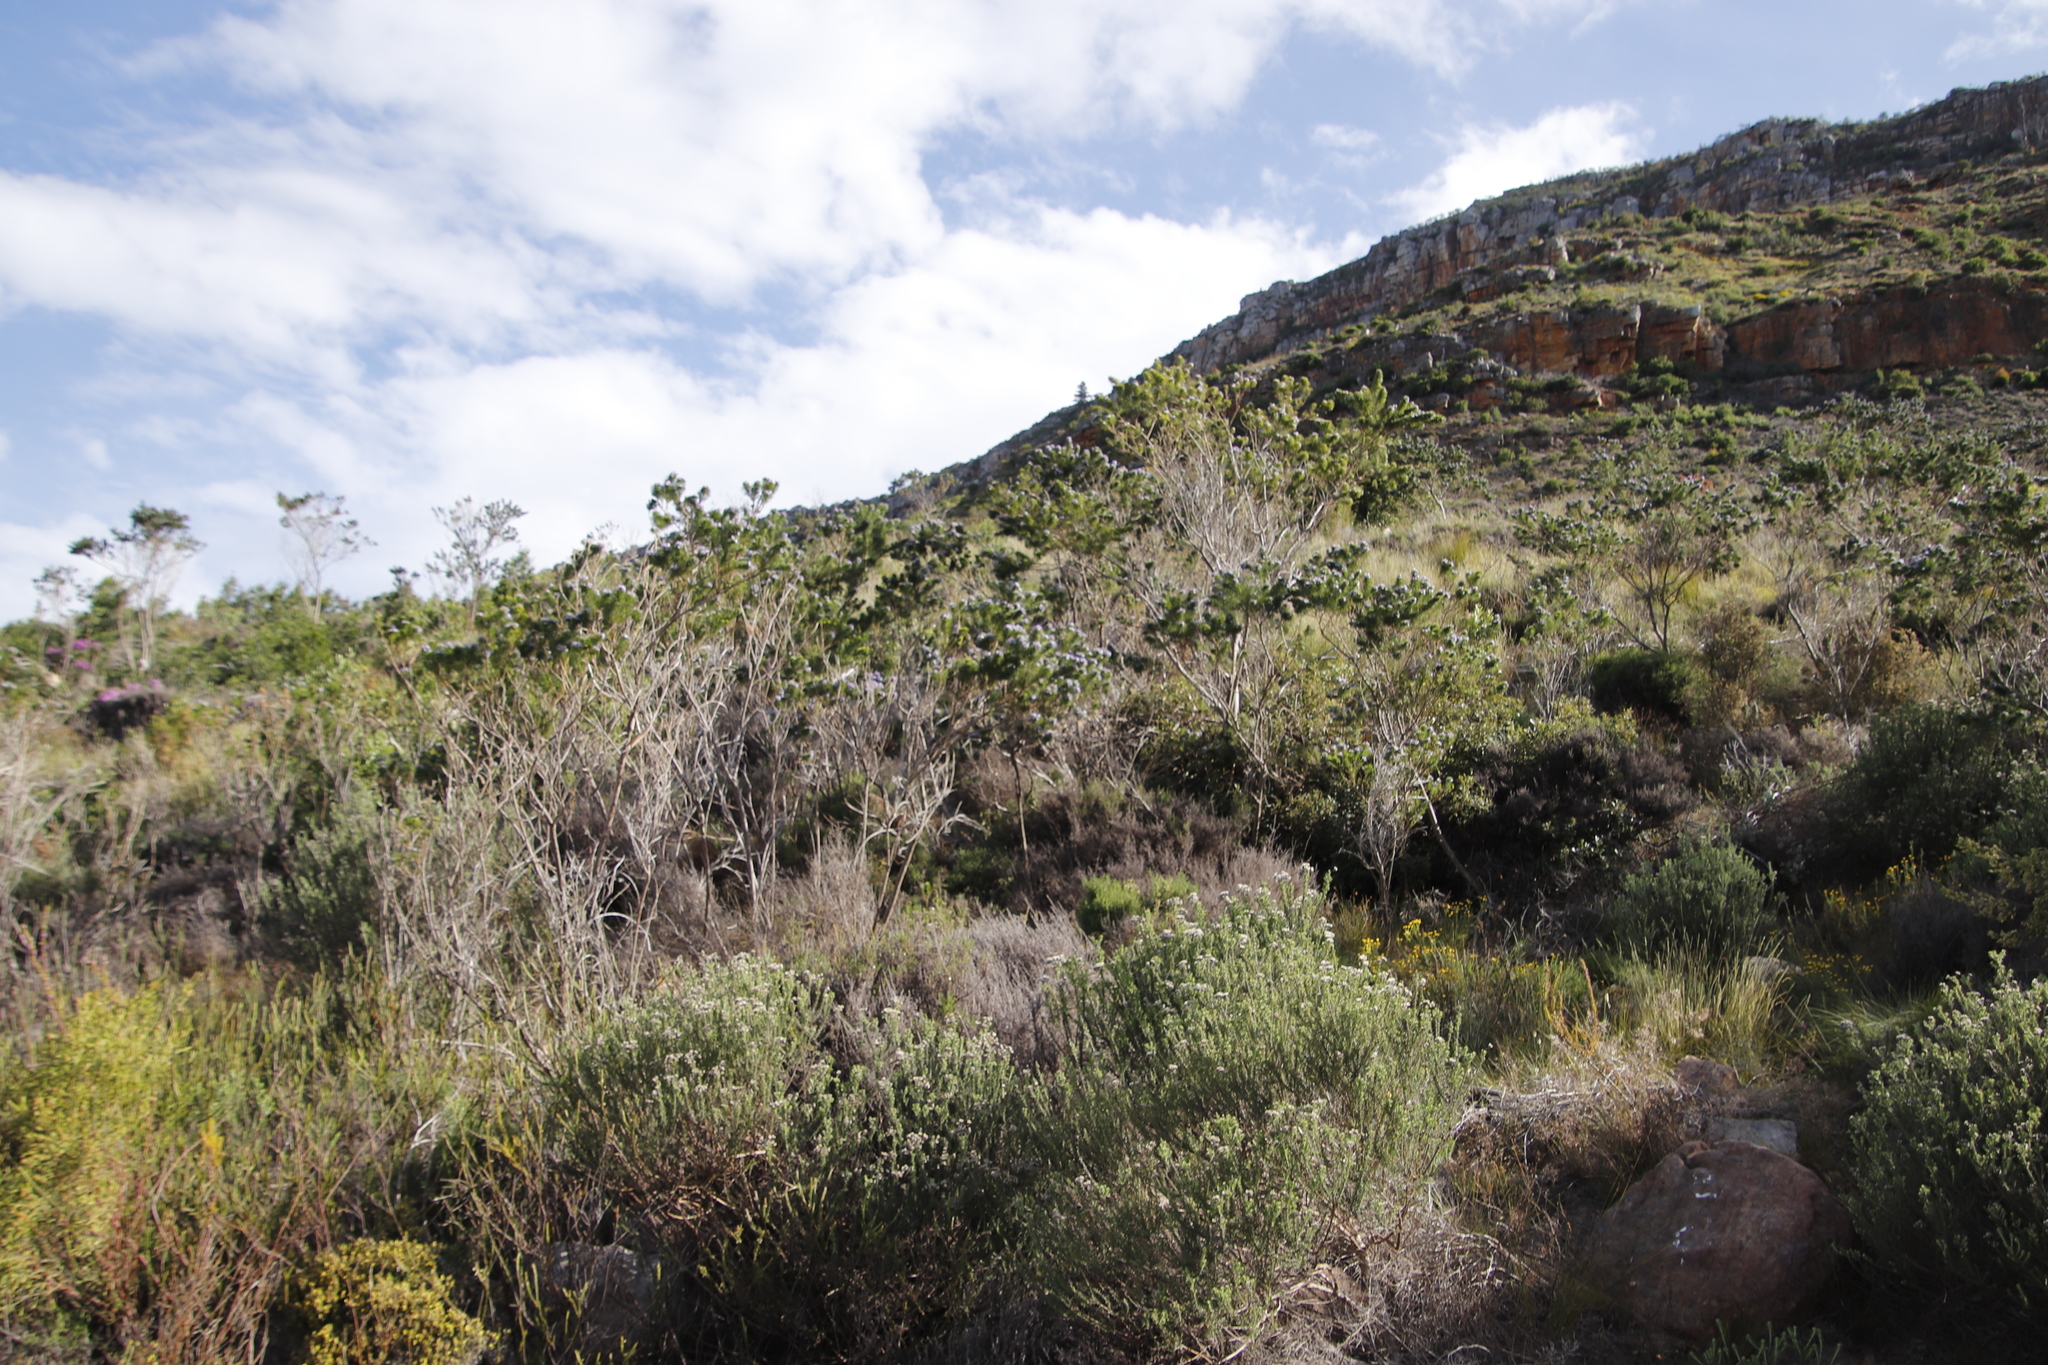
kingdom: Plantae
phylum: Tracheophyta
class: Magnoliopsida
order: Fabales
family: Fabaceae
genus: Psoralea
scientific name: Psoralea pinnata
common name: African scurfpea
